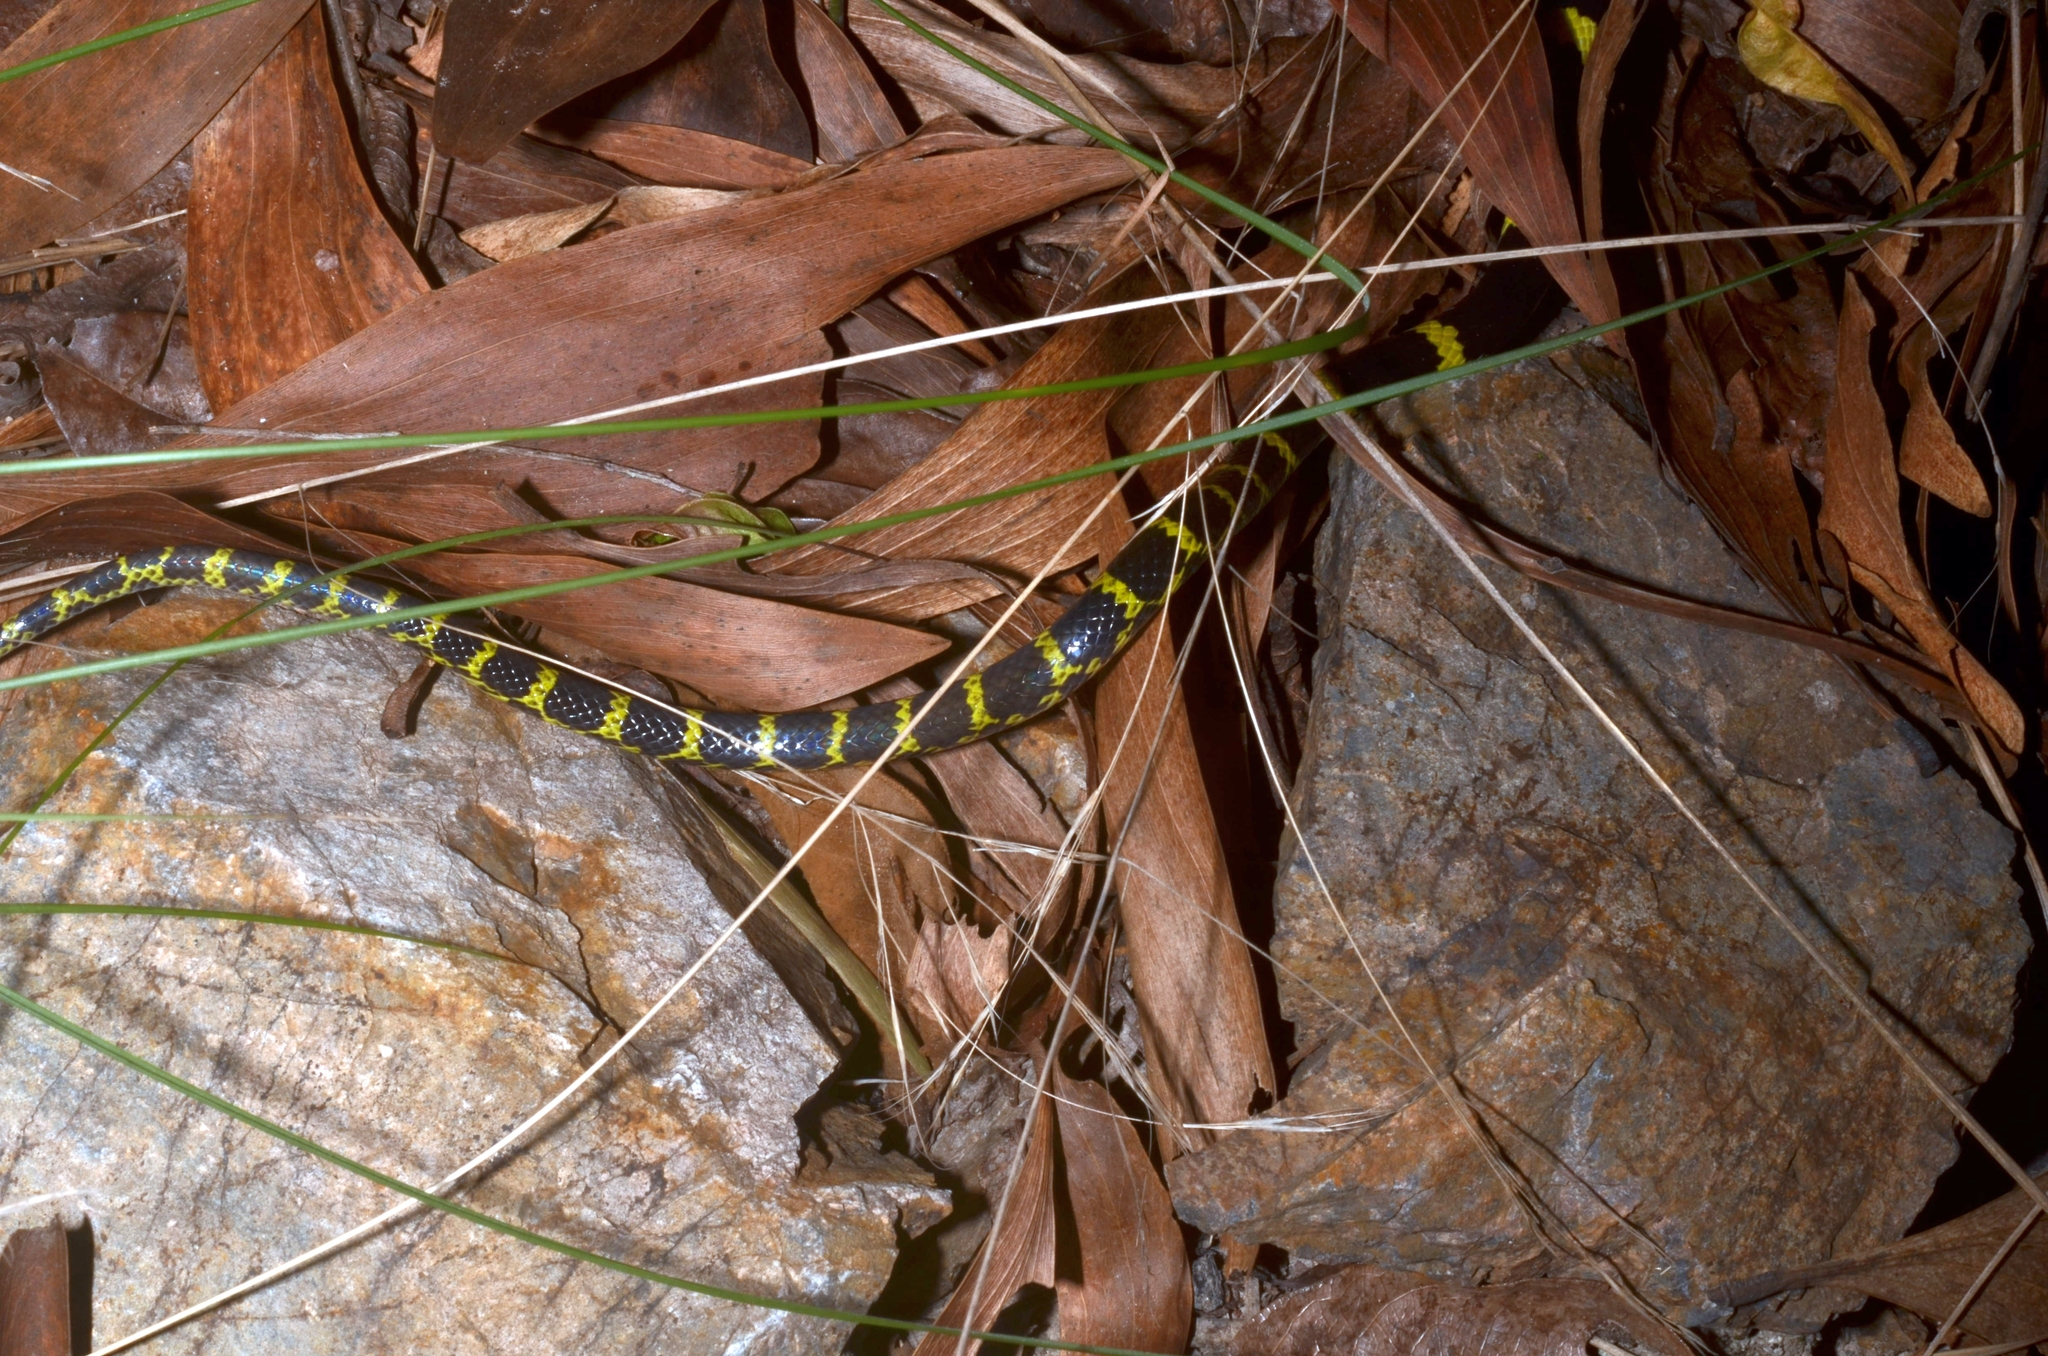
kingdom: Animalia
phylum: Chordata
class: Squamata
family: Colubridae
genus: Lycodon
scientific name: Lycodon laoensis
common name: Laotian wolf snake
